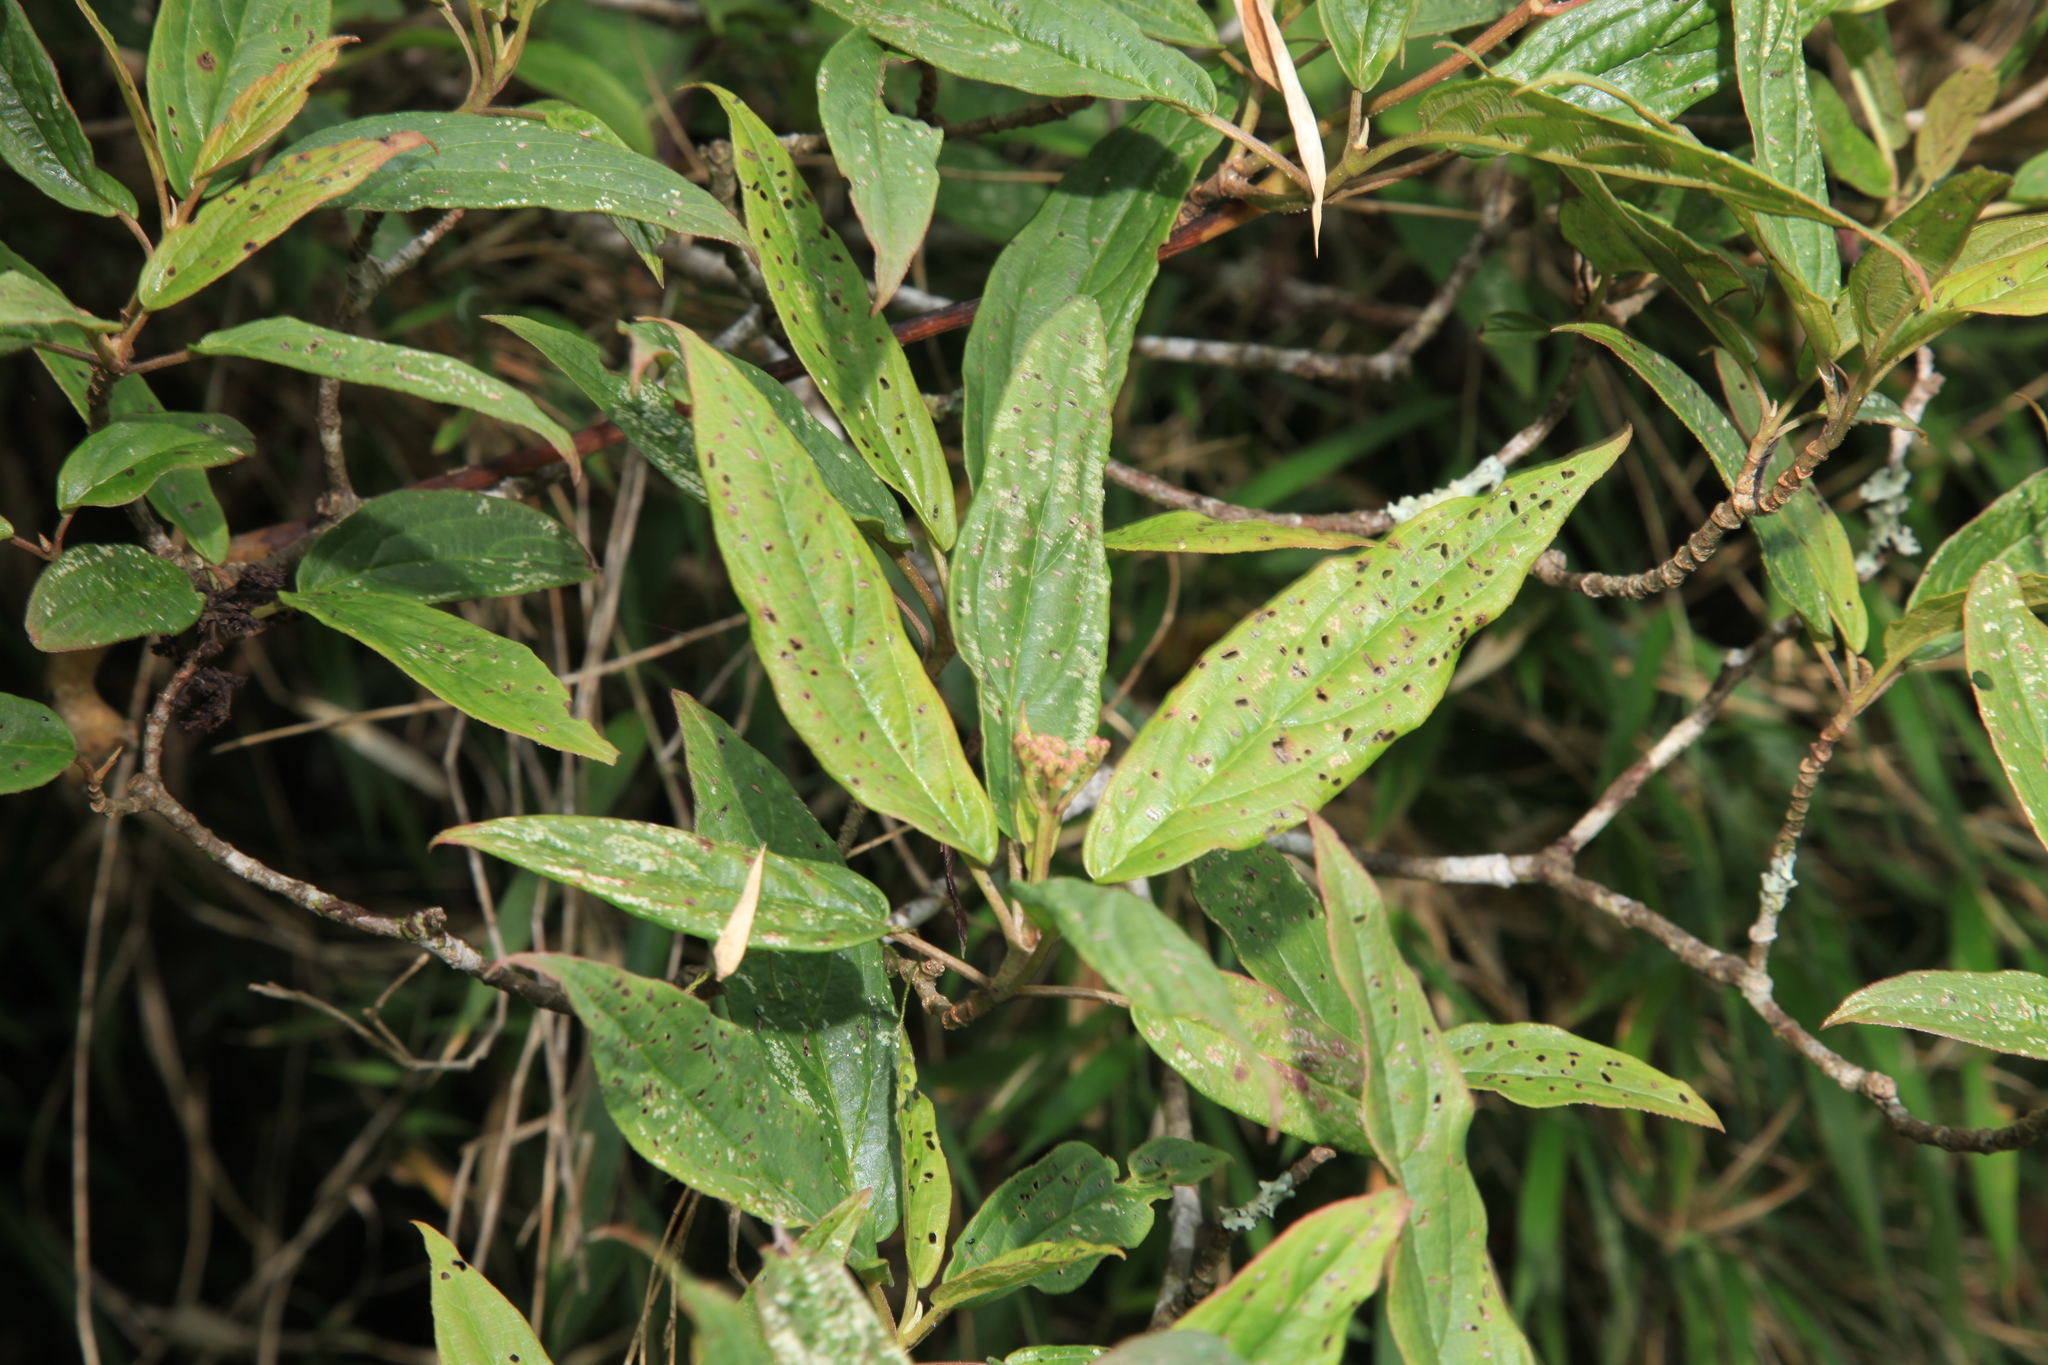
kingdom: Plantae
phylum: Tracheophyta
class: Magnoliopsida
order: Dipsacales
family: Viburnaceae
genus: Viburnum
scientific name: Viburnum urceolatum
